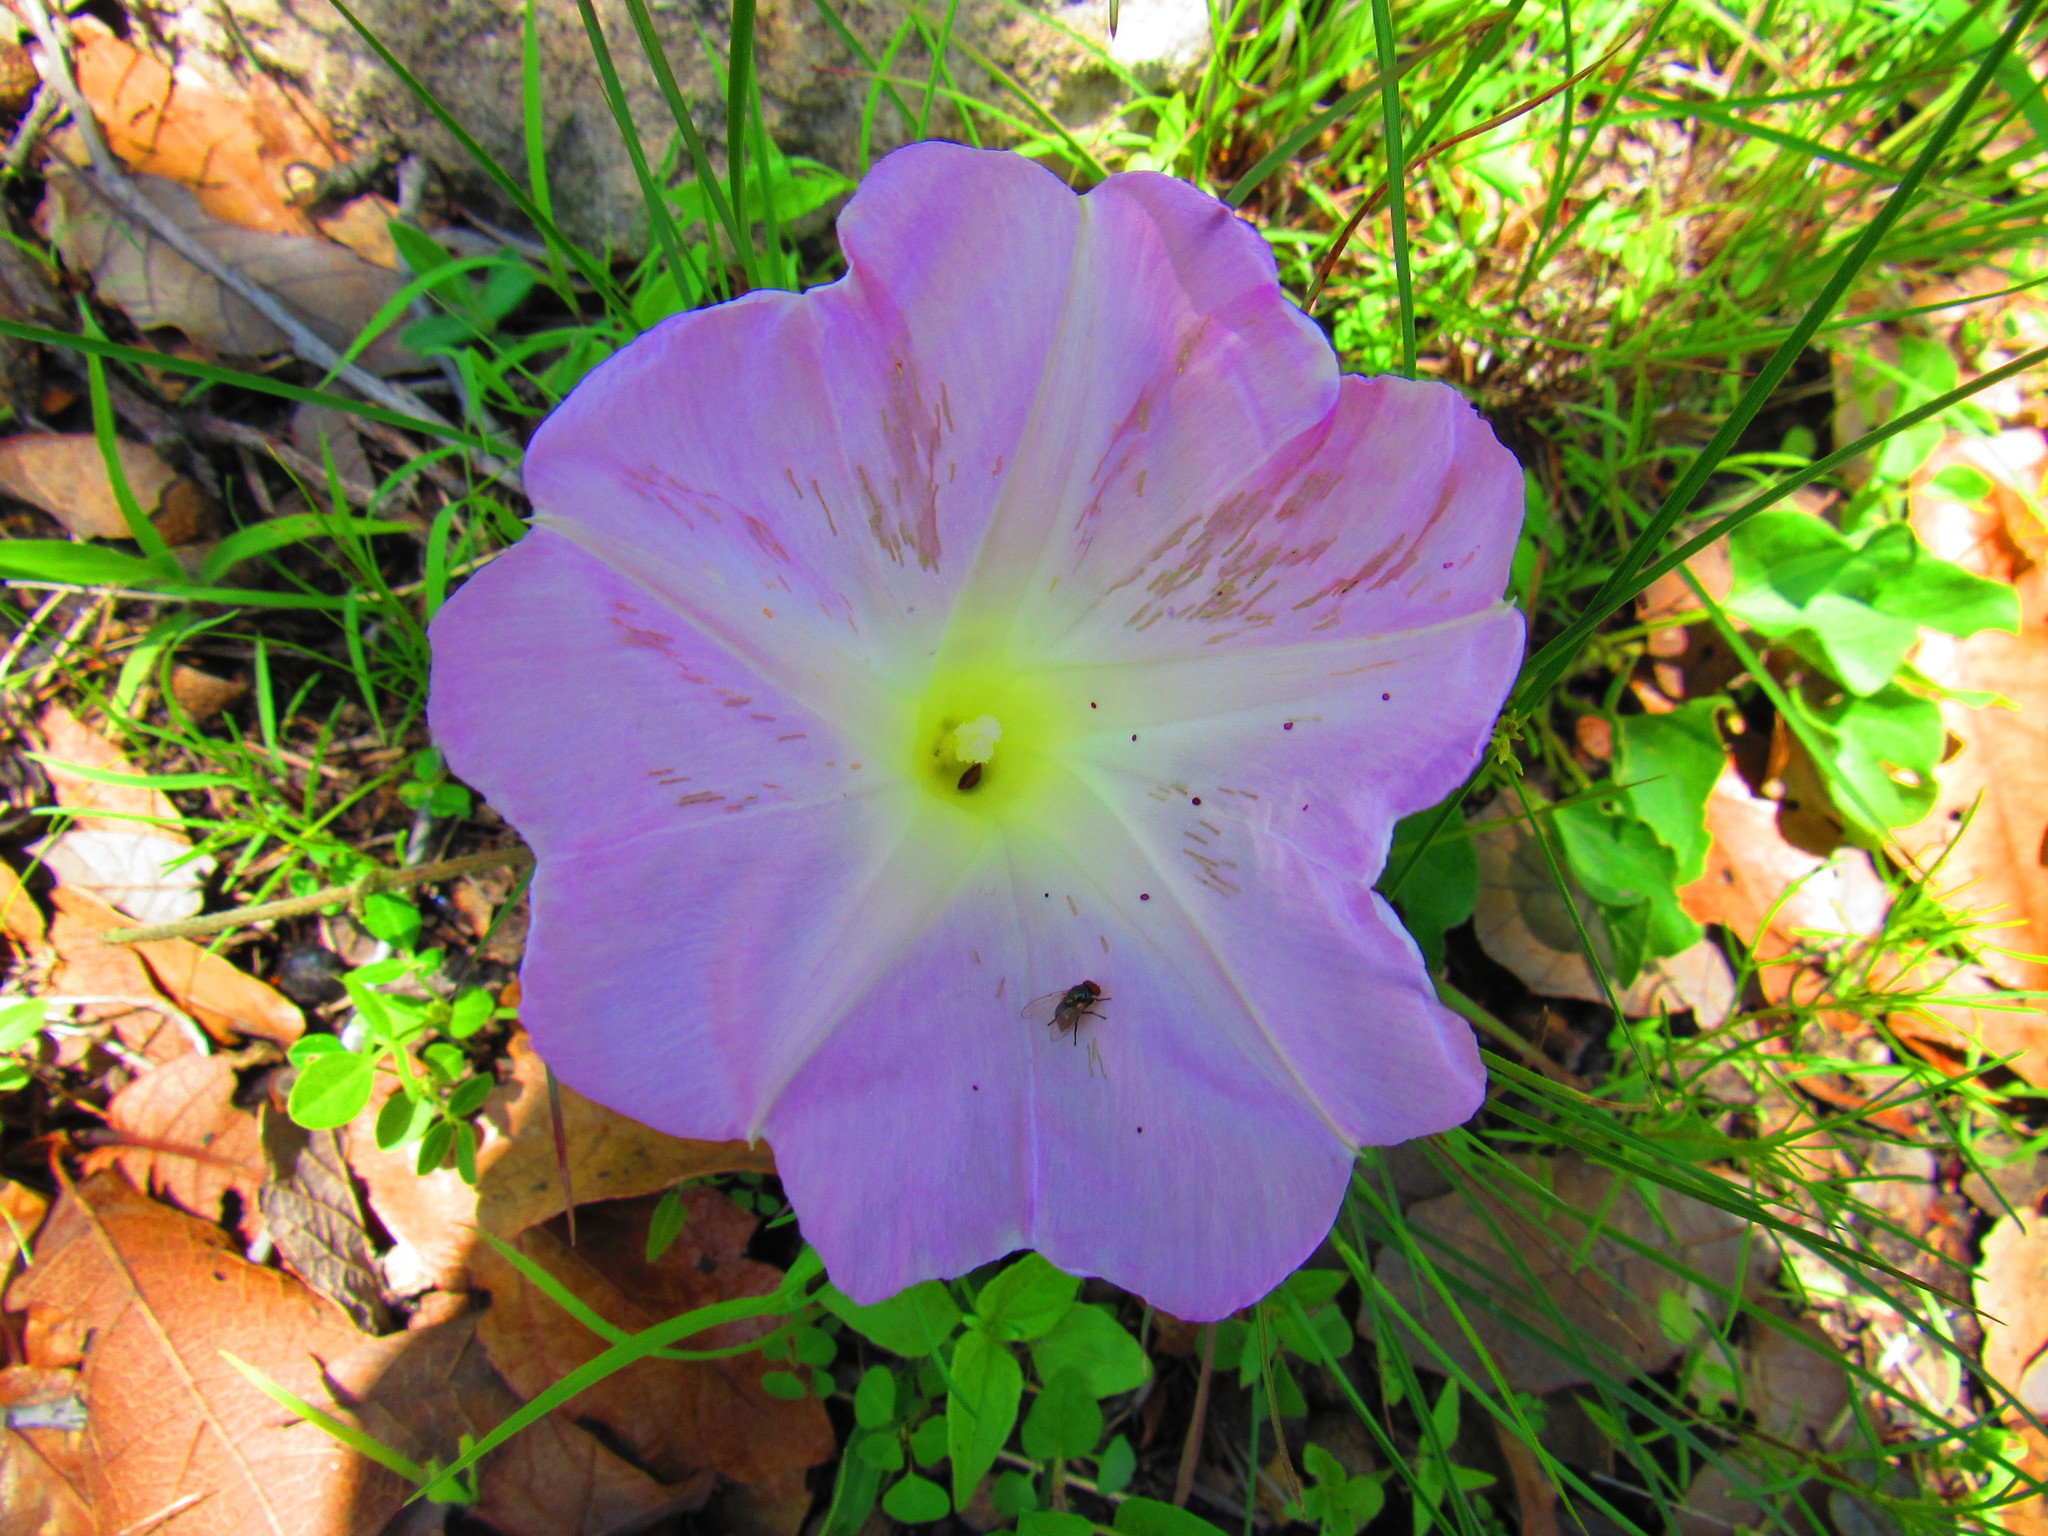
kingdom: Plantae
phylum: Tracheophyta
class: Magnoliopsida
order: Solanales
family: Convolvulaceae
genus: Ipomoea
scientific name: Ipomoea hartwegii
